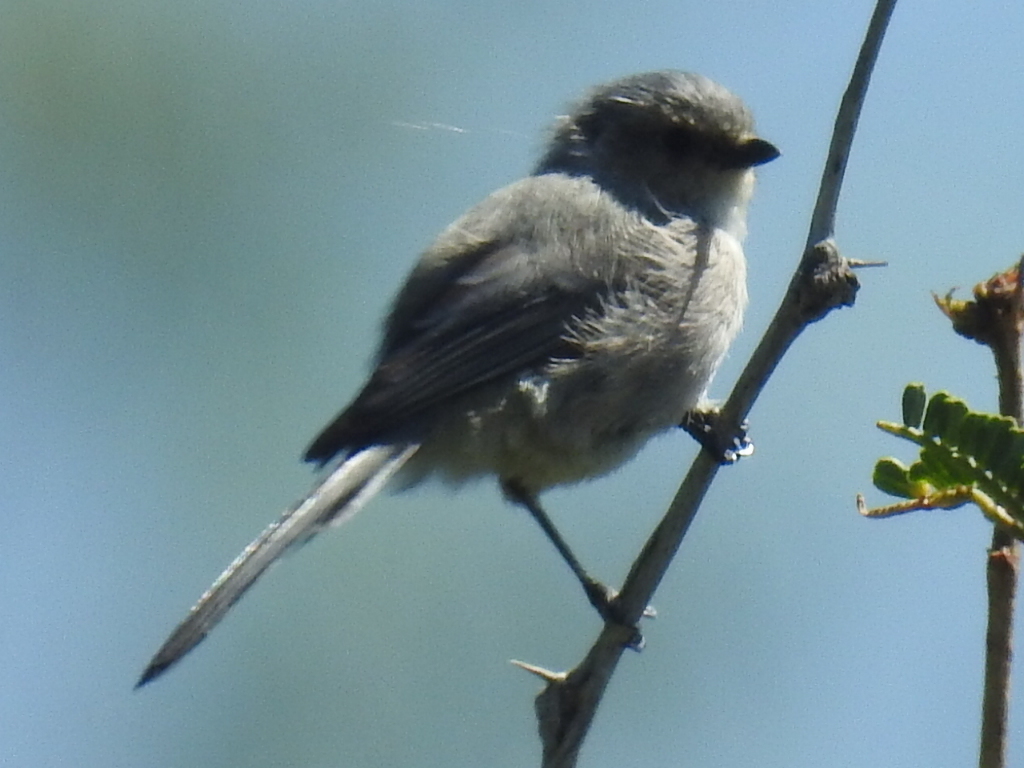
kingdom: Animalia
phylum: Chordata
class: Aves
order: Passeriformes
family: Aegithalidae
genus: Psaltriparus
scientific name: Psaltriparus minimus
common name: American bushtit
